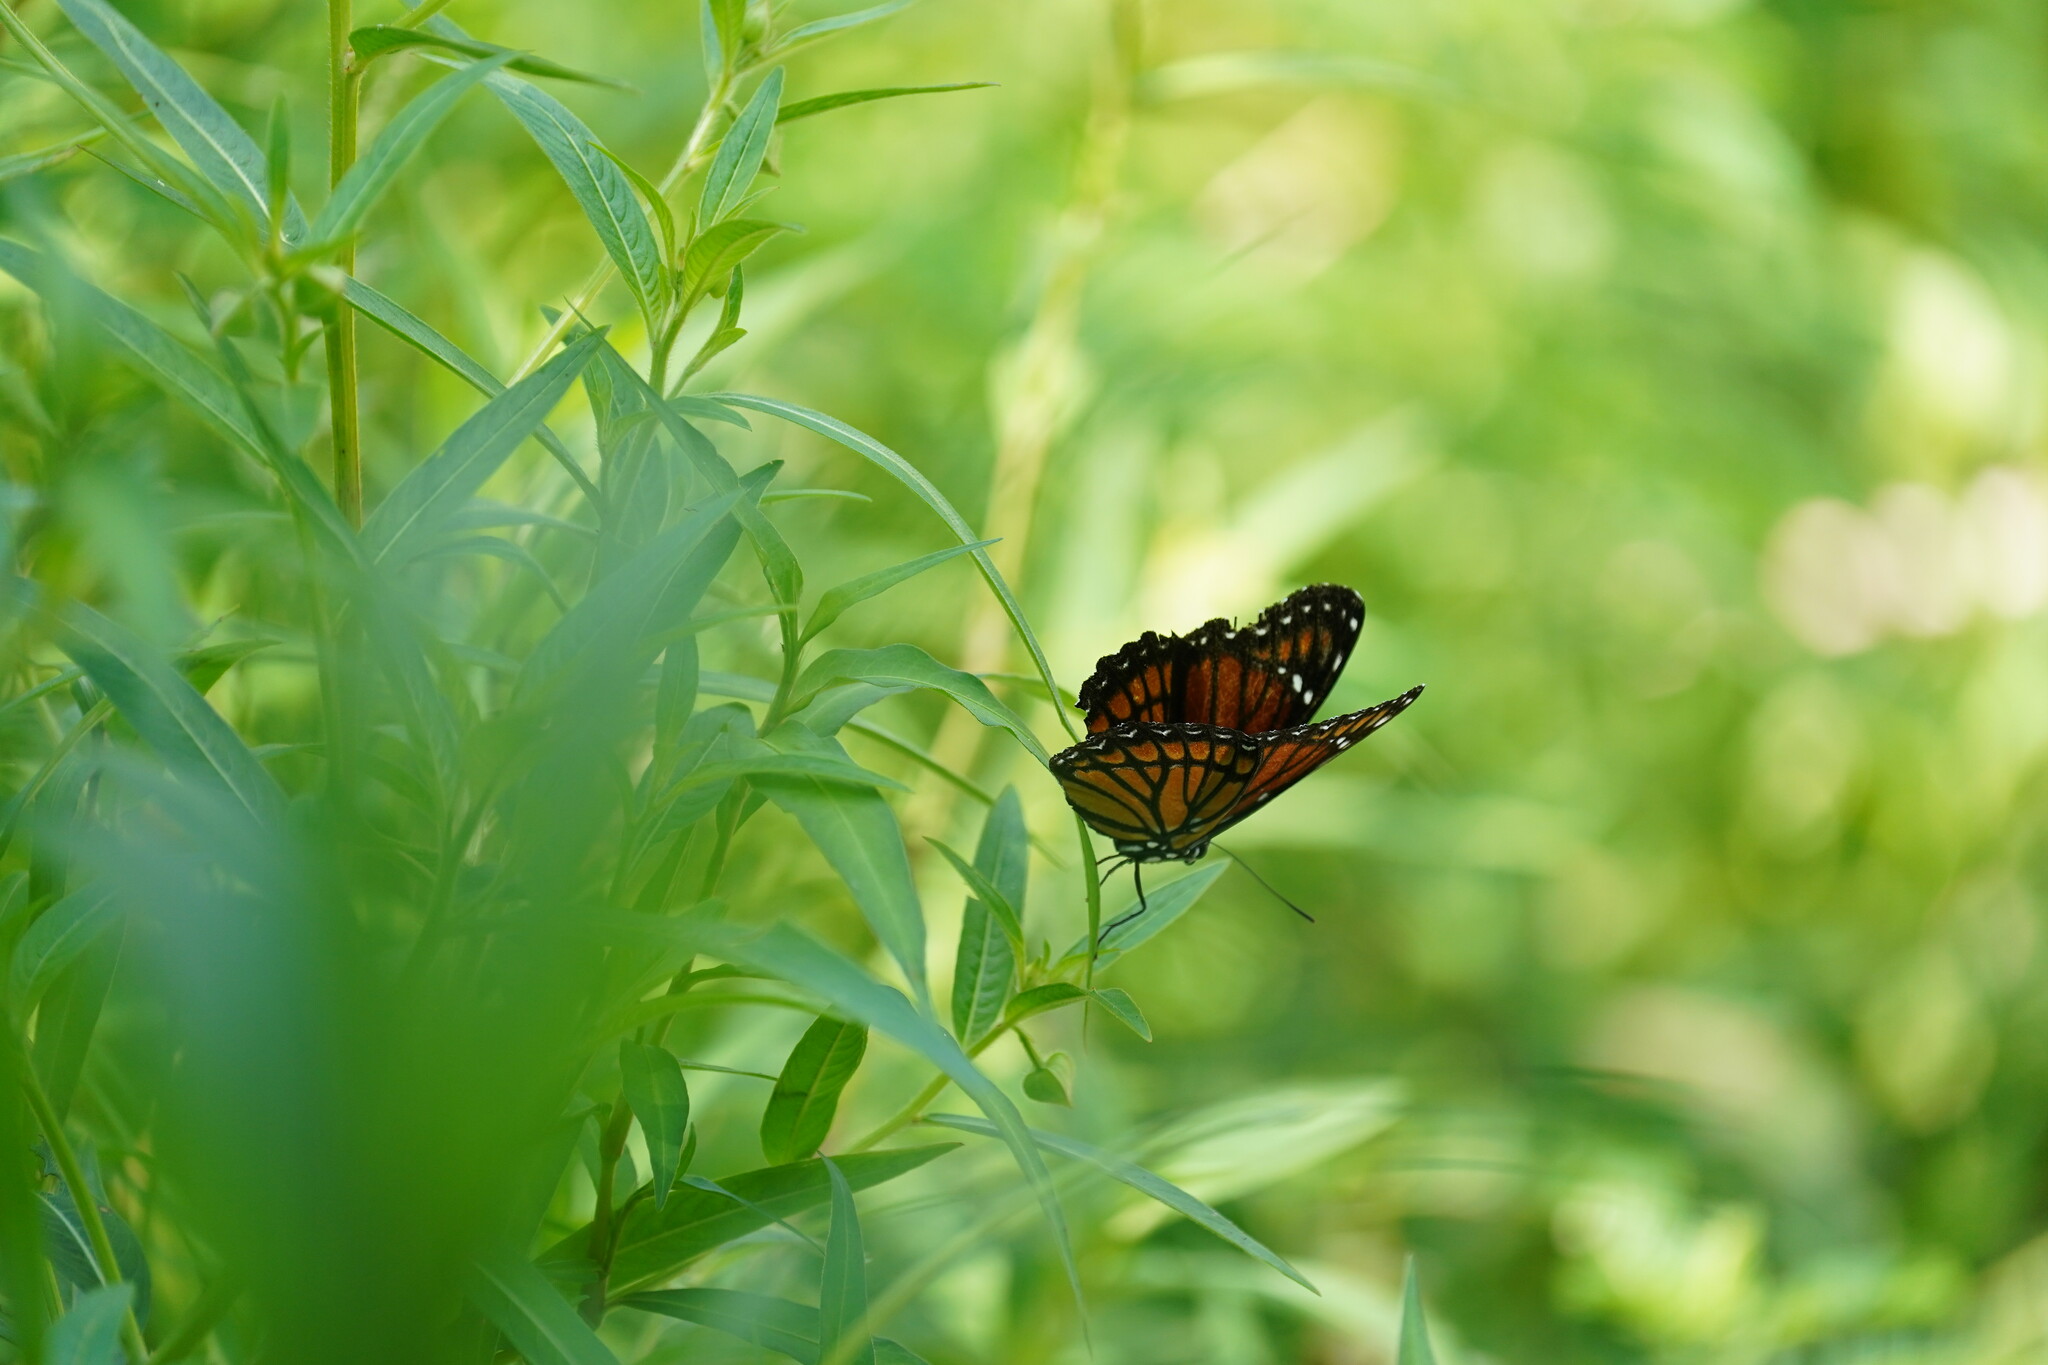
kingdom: Animalia
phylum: Arthropoda
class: Insecta
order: Lepidoptera
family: Nymphalidae
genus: Limenitis
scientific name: Limenitis archippus
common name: Viceroy
